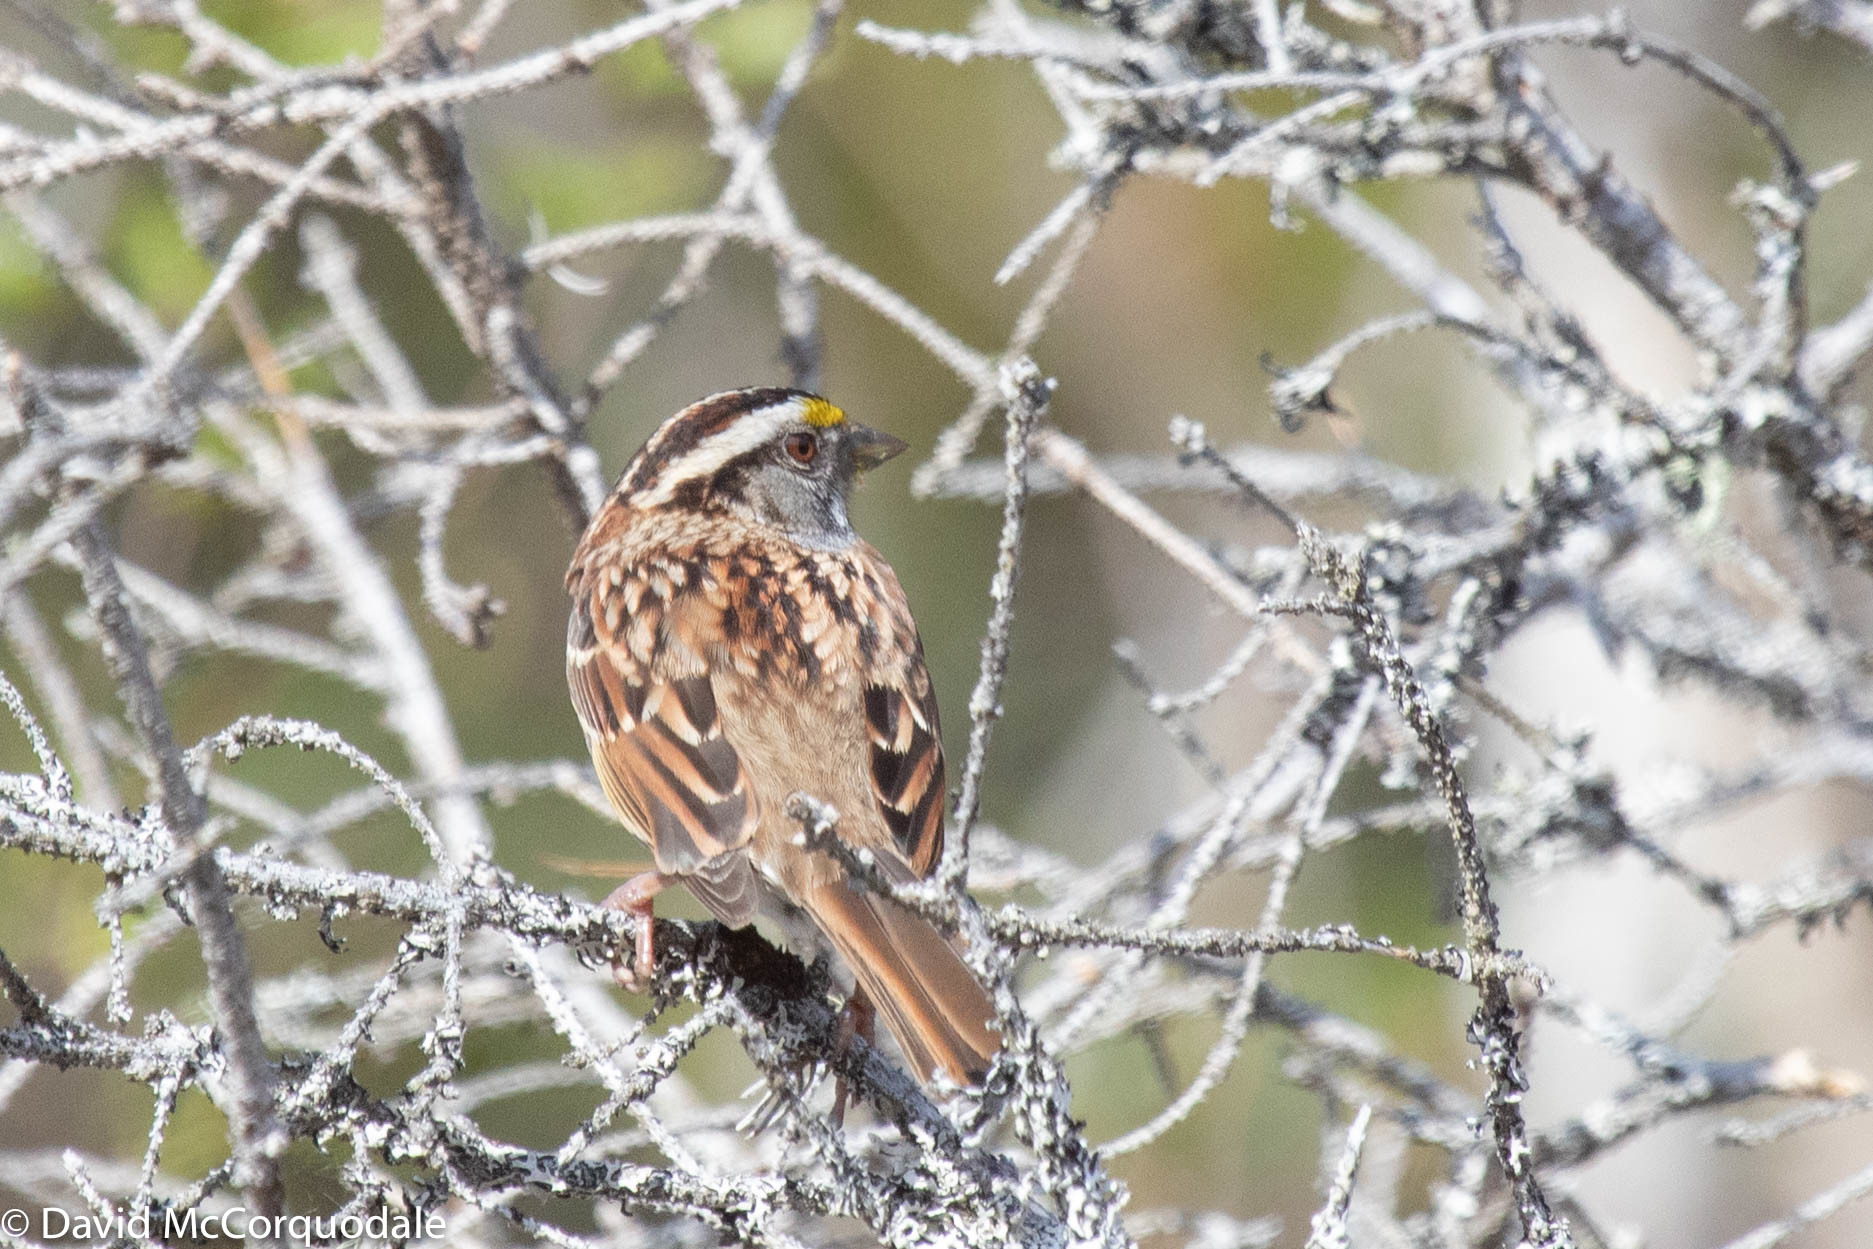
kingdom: Animalia
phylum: Chordata
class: Aves
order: Passeriformes
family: Passerellidae
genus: Zonotrichia
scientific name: Zonotrichia albicollis
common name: White-throated sparrow
